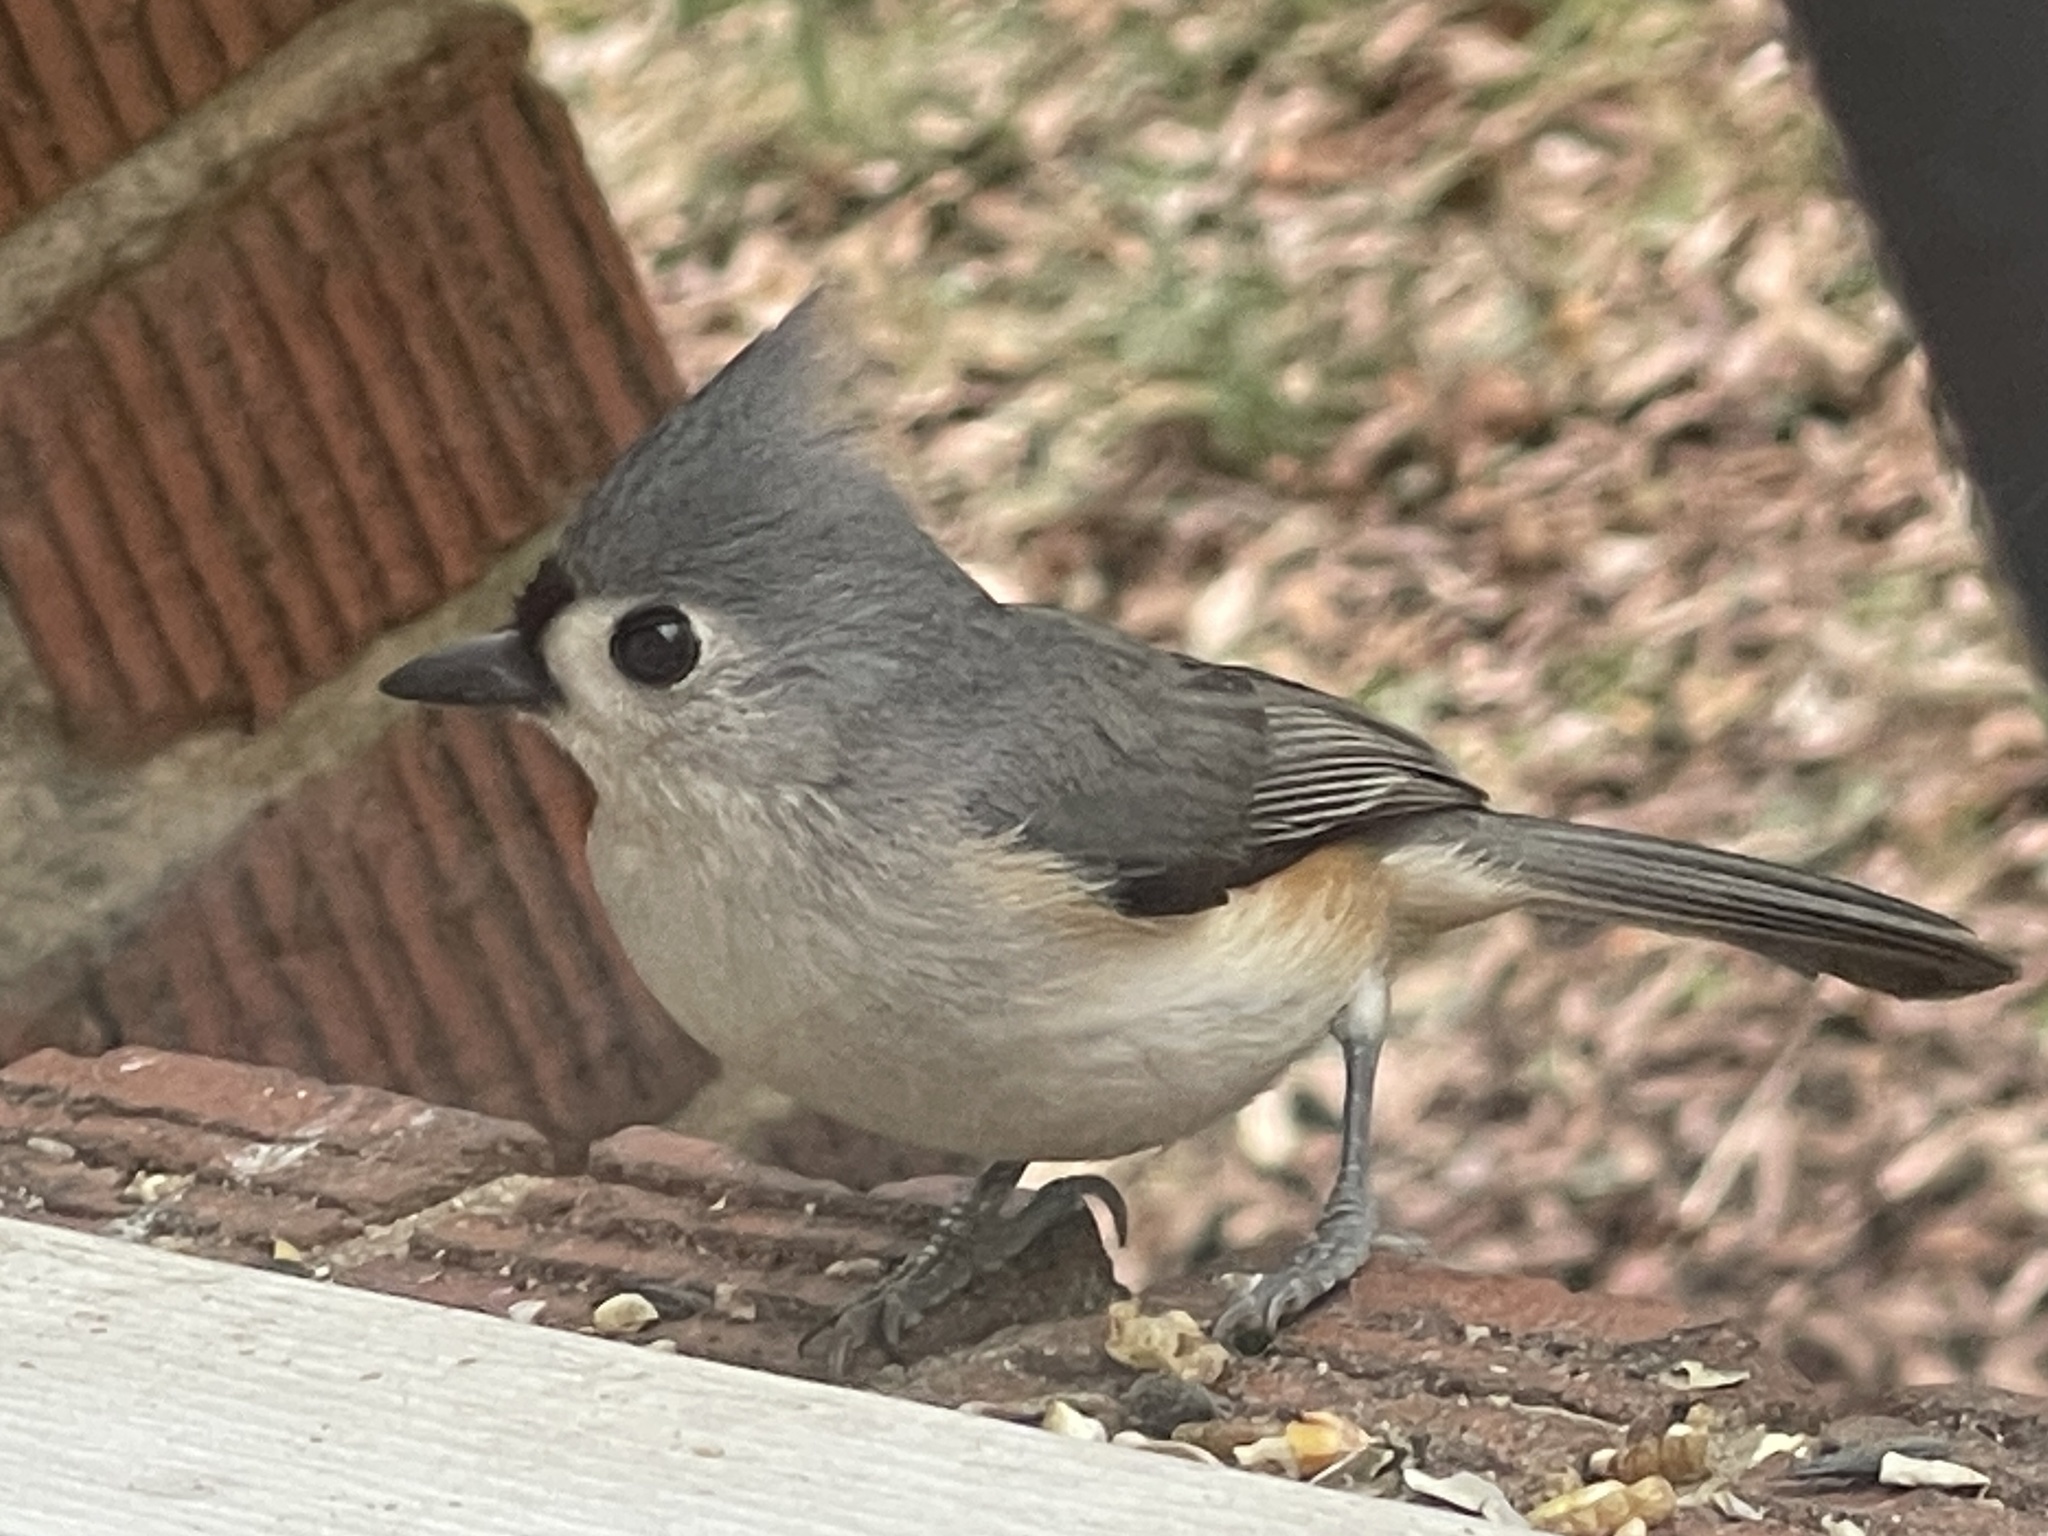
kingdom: Animalia
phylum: Chordata
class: Aves
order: Passeriformes
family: Paridae
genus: Baeolophus
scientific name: Baeolophus bicolor
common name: Tufted titmouse
